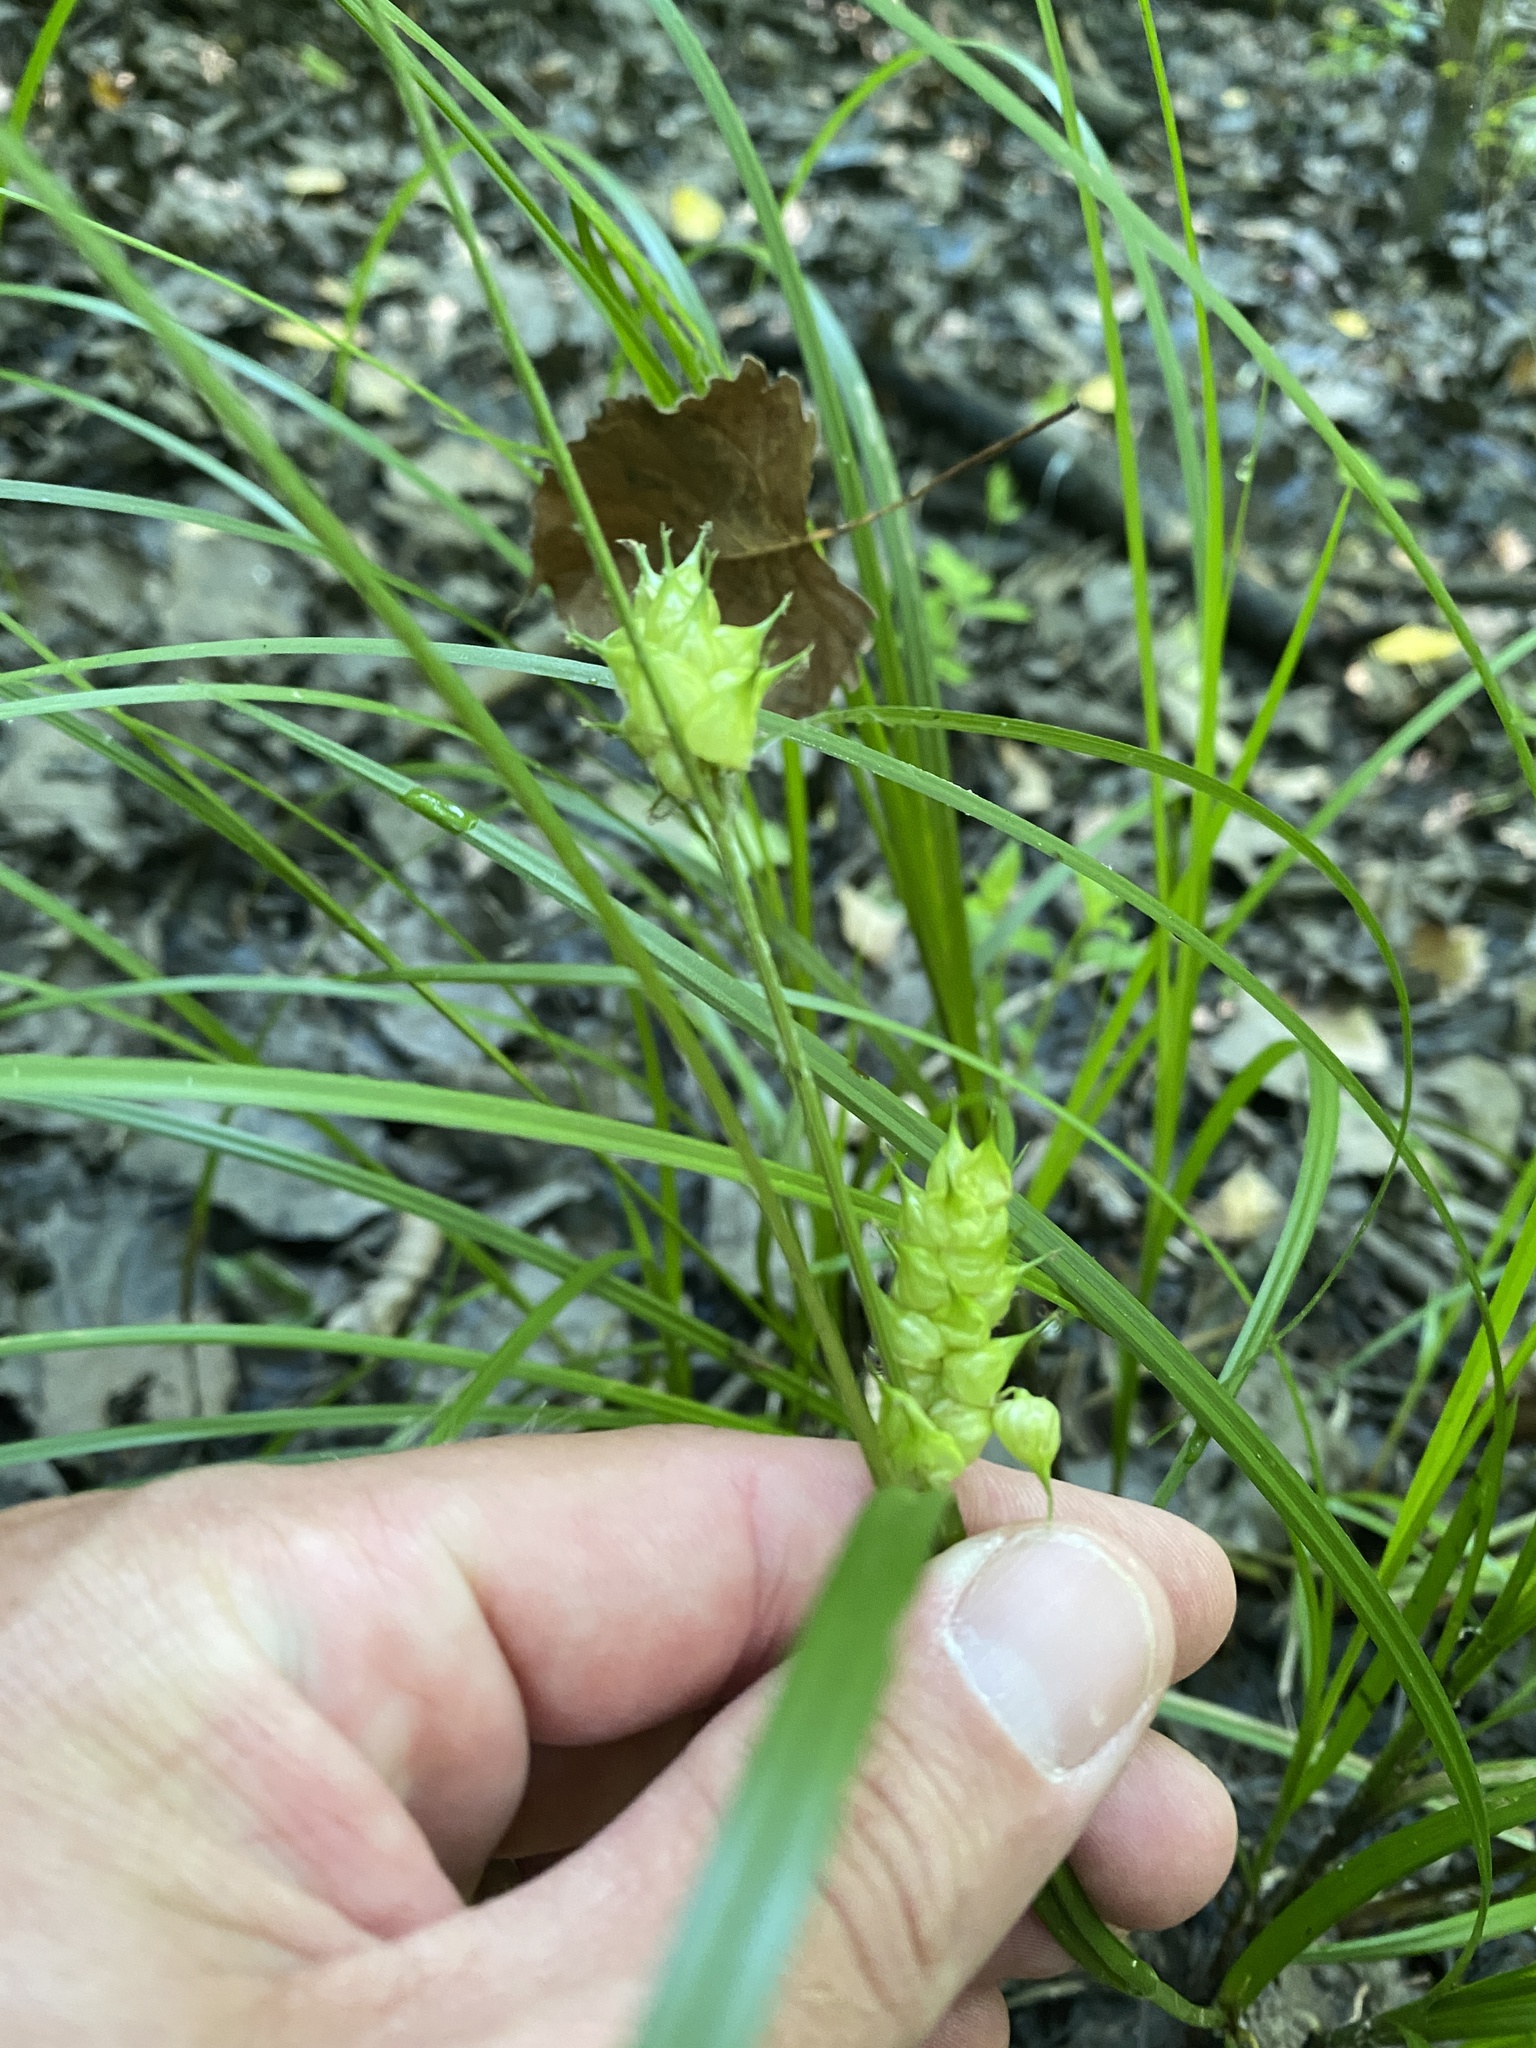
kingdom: Plantae
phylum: Tracheophyta
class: Liliopsida
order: Poales
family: Cyperaceae
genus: Carex
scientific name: Carex tuckermanii
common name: Tuckerman's sedge
